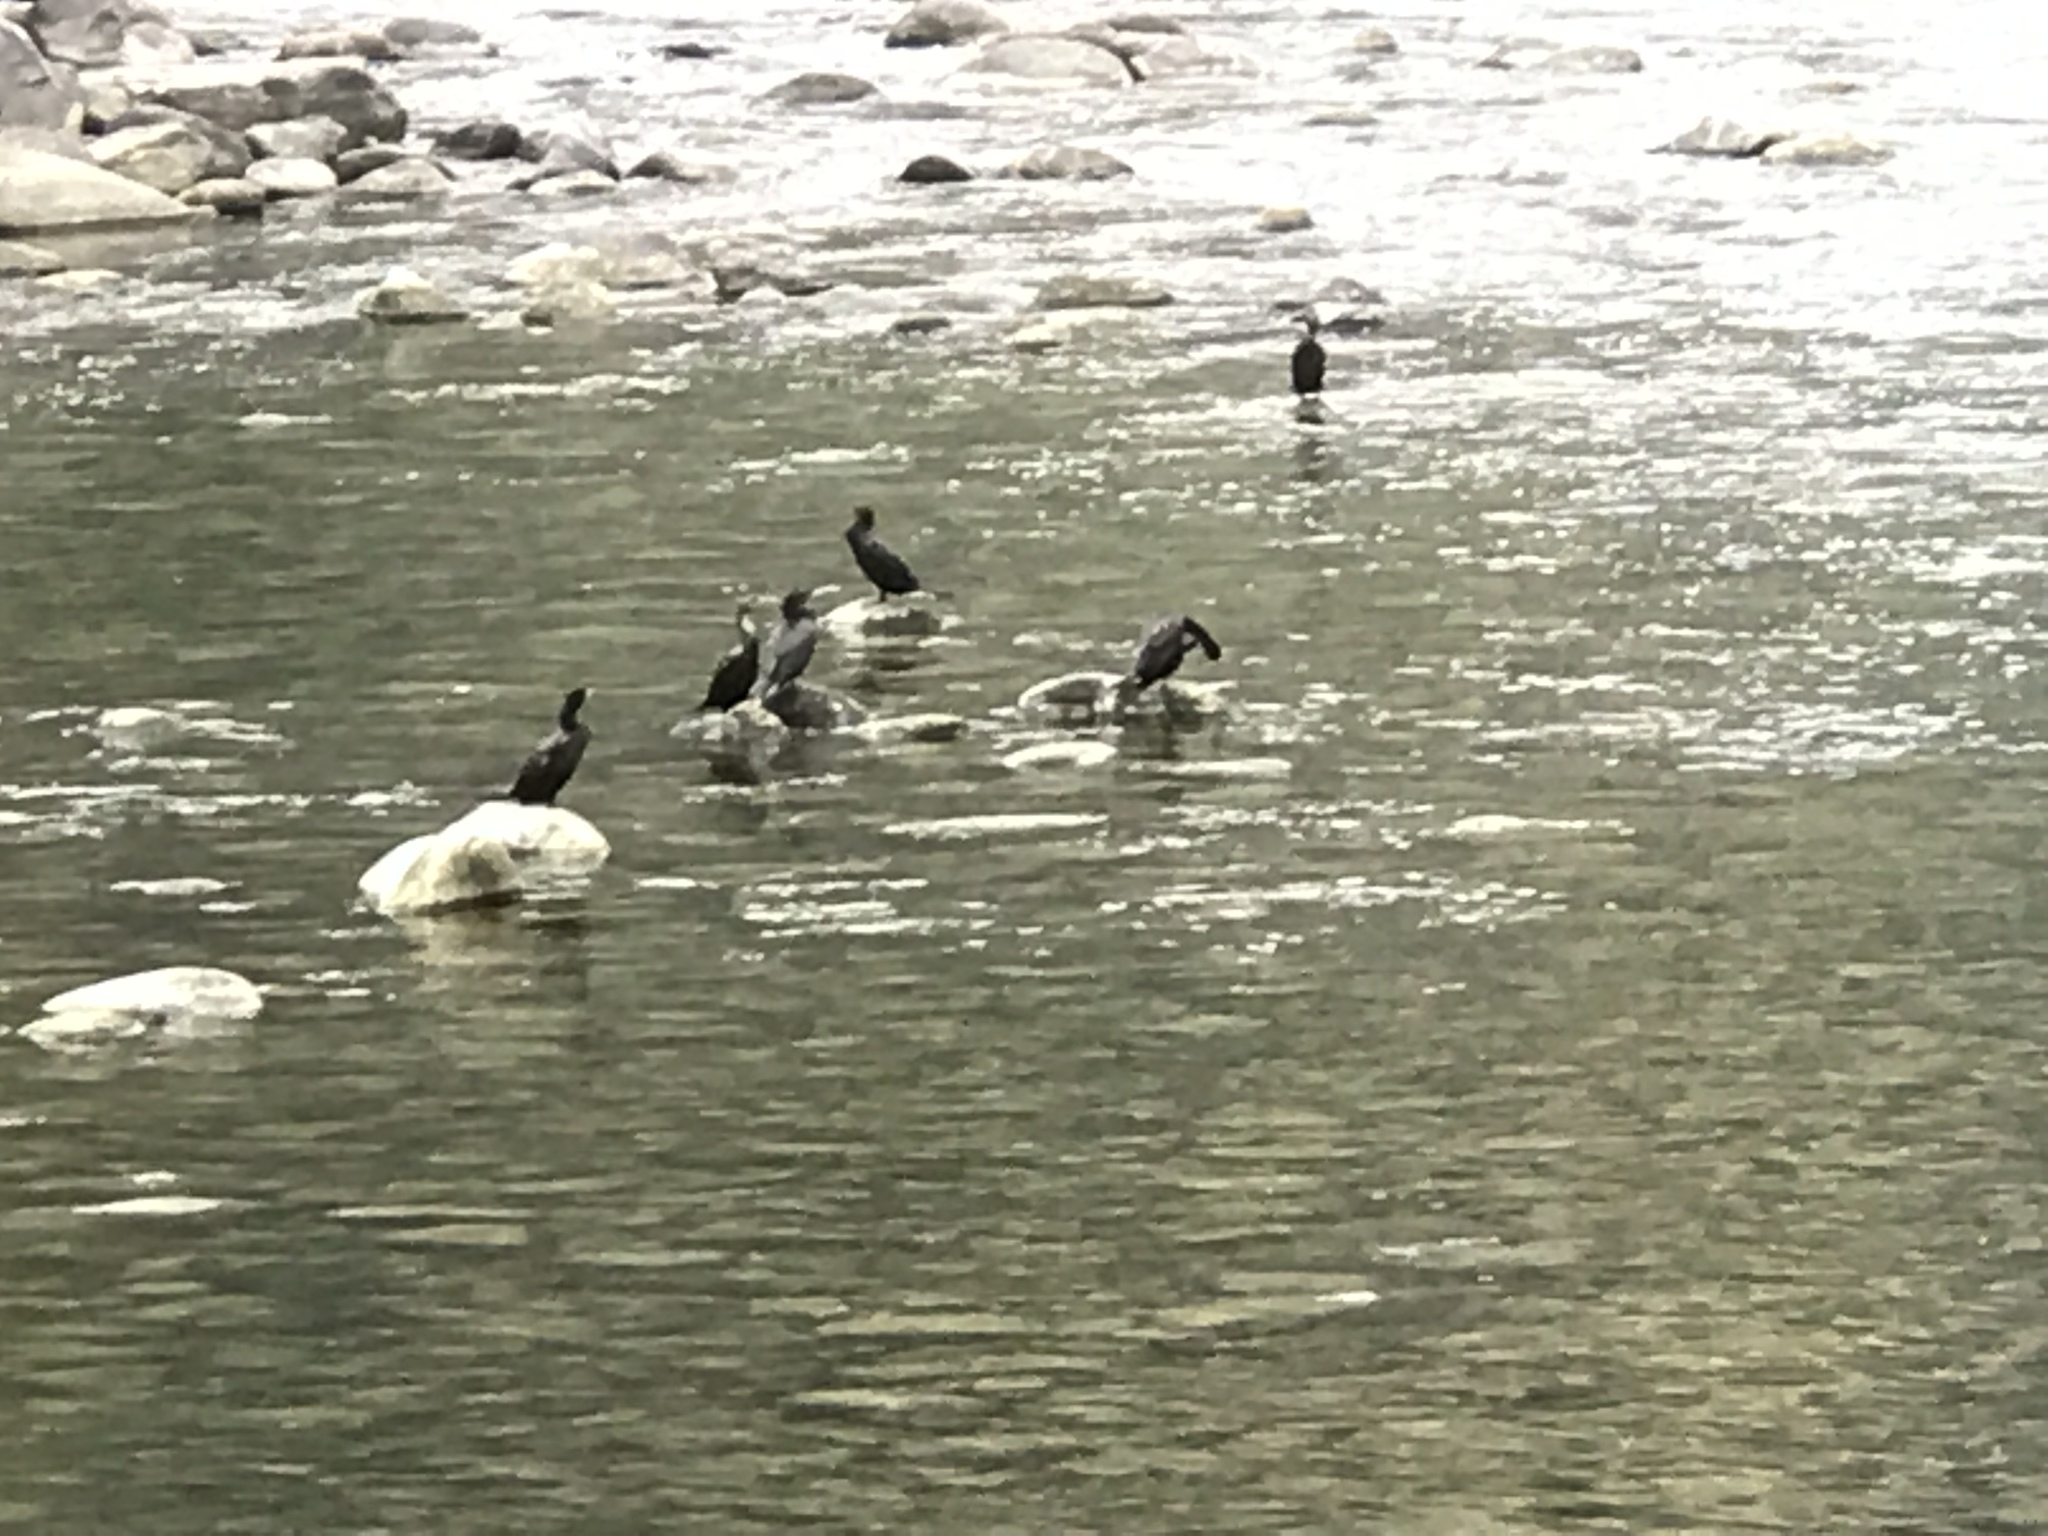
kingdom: Animalia
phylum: Chordata
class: Aves
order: Suliformes
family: Phalacrocoracidae
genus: Phalacrocorax
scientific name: Phalacrocorax brasilianus
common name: Neotropic cormorant
